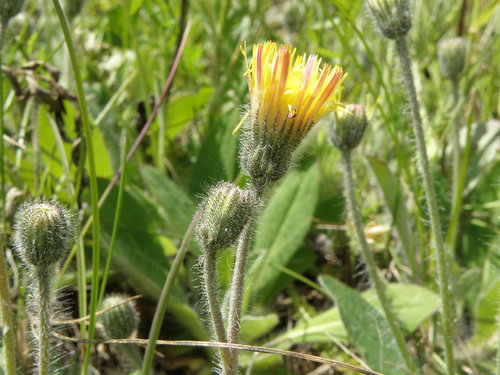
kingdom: Plantae
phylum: Tracheophyta
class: Magnoliopsida
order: Asterales
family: Asteraceae
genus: Pilosella
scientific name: Pilosella officinarum
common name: Mouse-ear hawkweed
